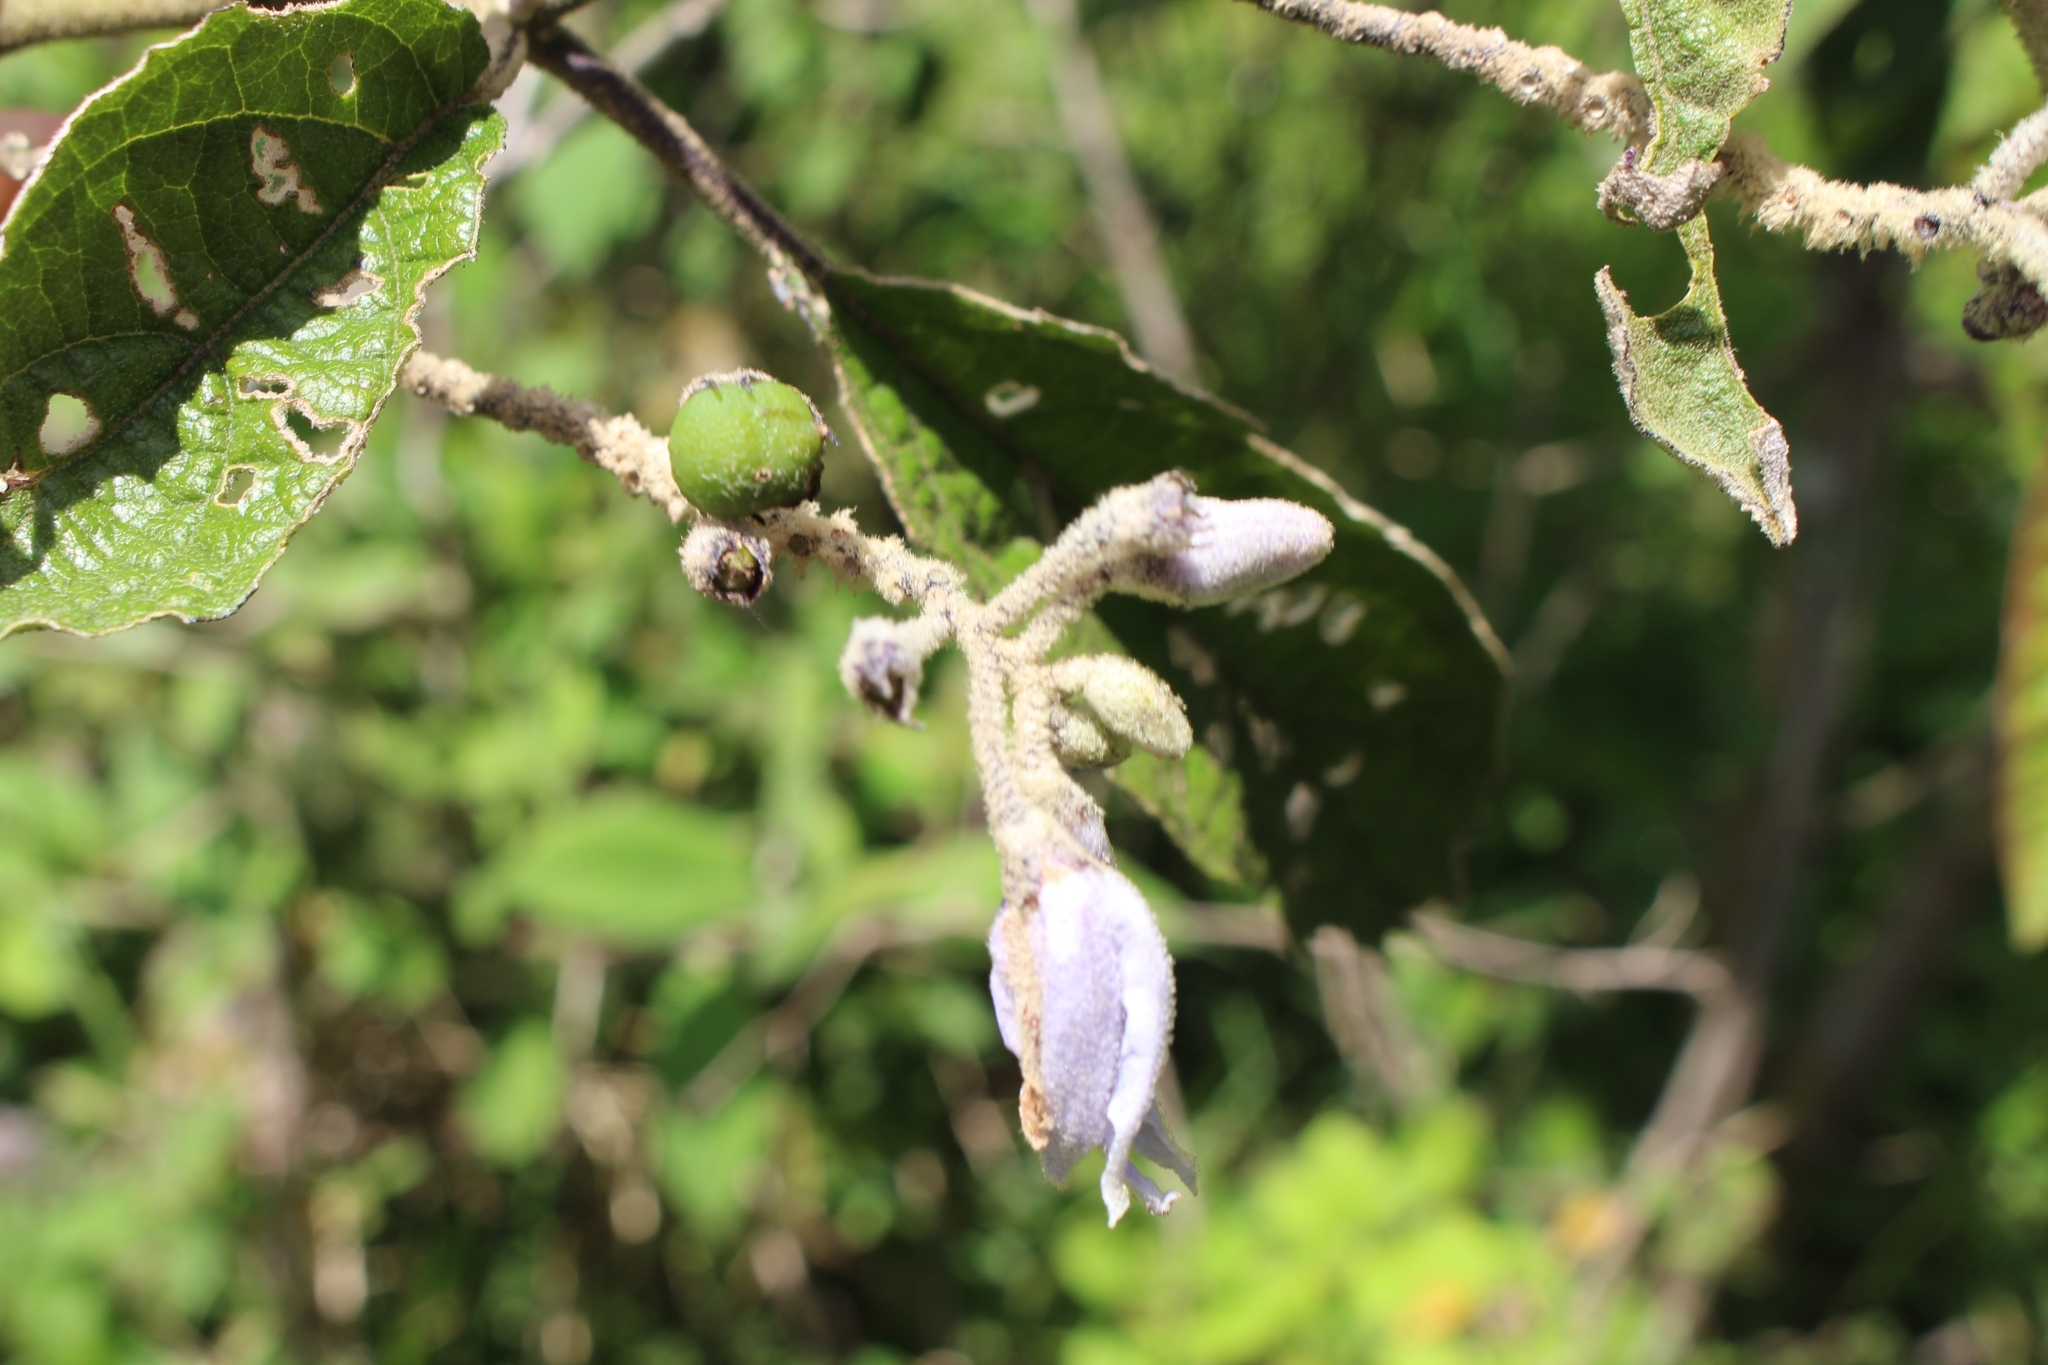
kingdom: Plantae
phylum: Tracheophyta
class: Magnoliopsida
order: Solanales
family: Solanaceae
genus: Solanum
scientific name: Solanum lanceolatum
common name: Orangeberry nightshade
